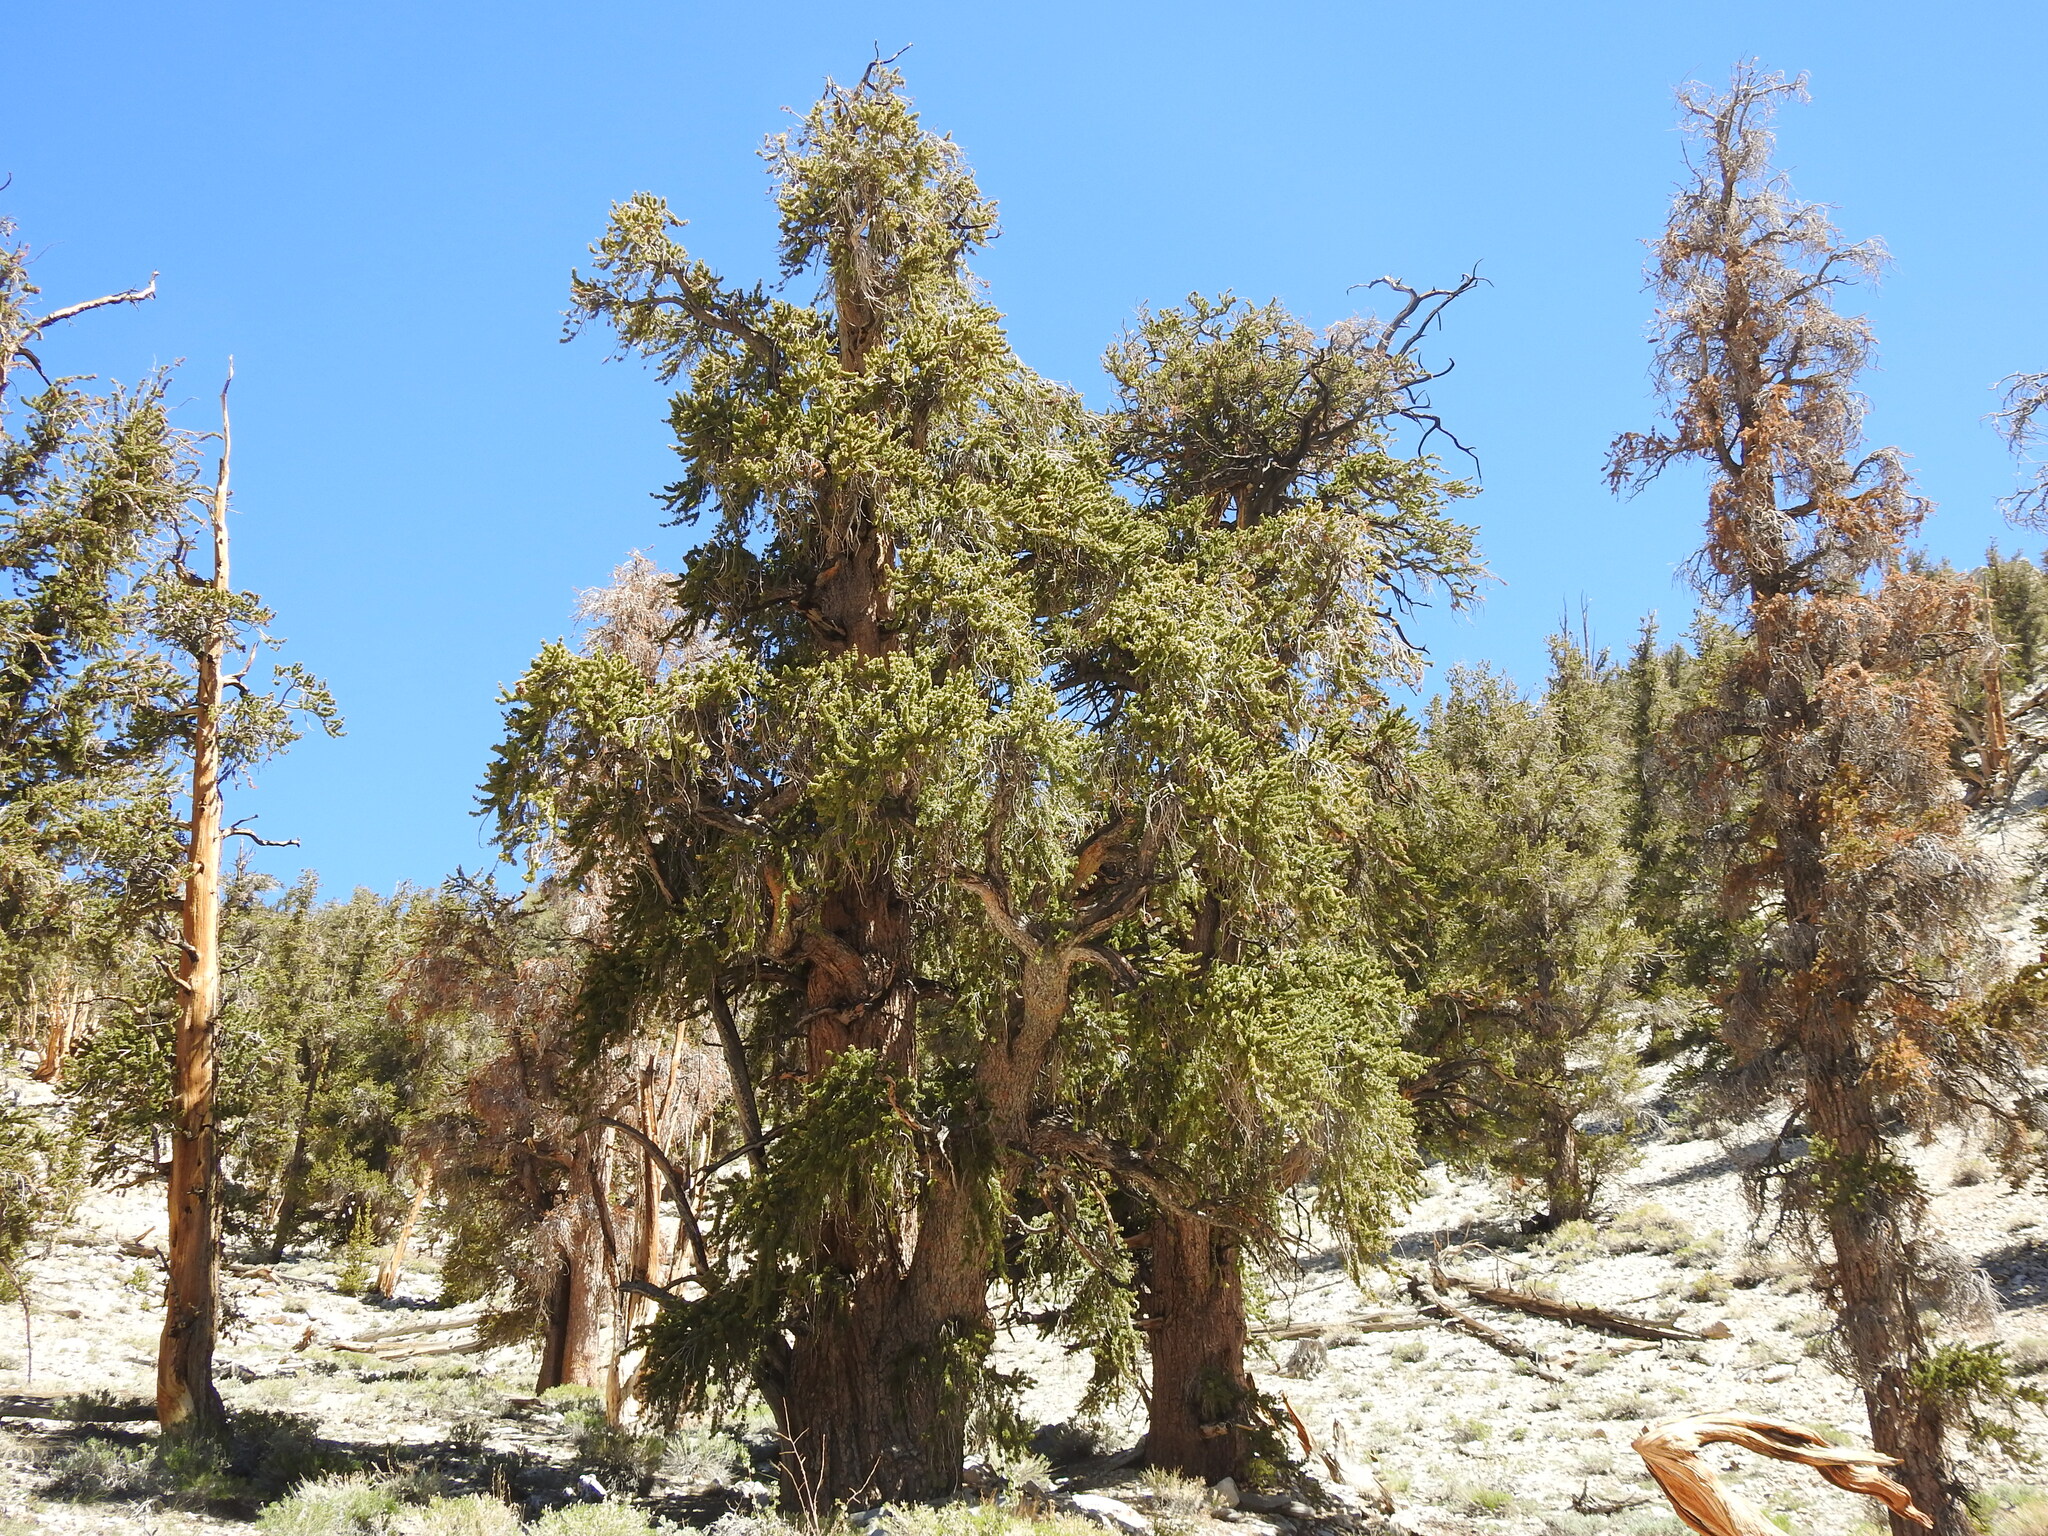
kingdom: Plantae
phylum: Tracheophyta
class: Pinopsida
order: Pinales
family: Pinaceae
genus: Pinus
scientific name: Pinus longaeva
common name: Intermountain bristlecone pine
